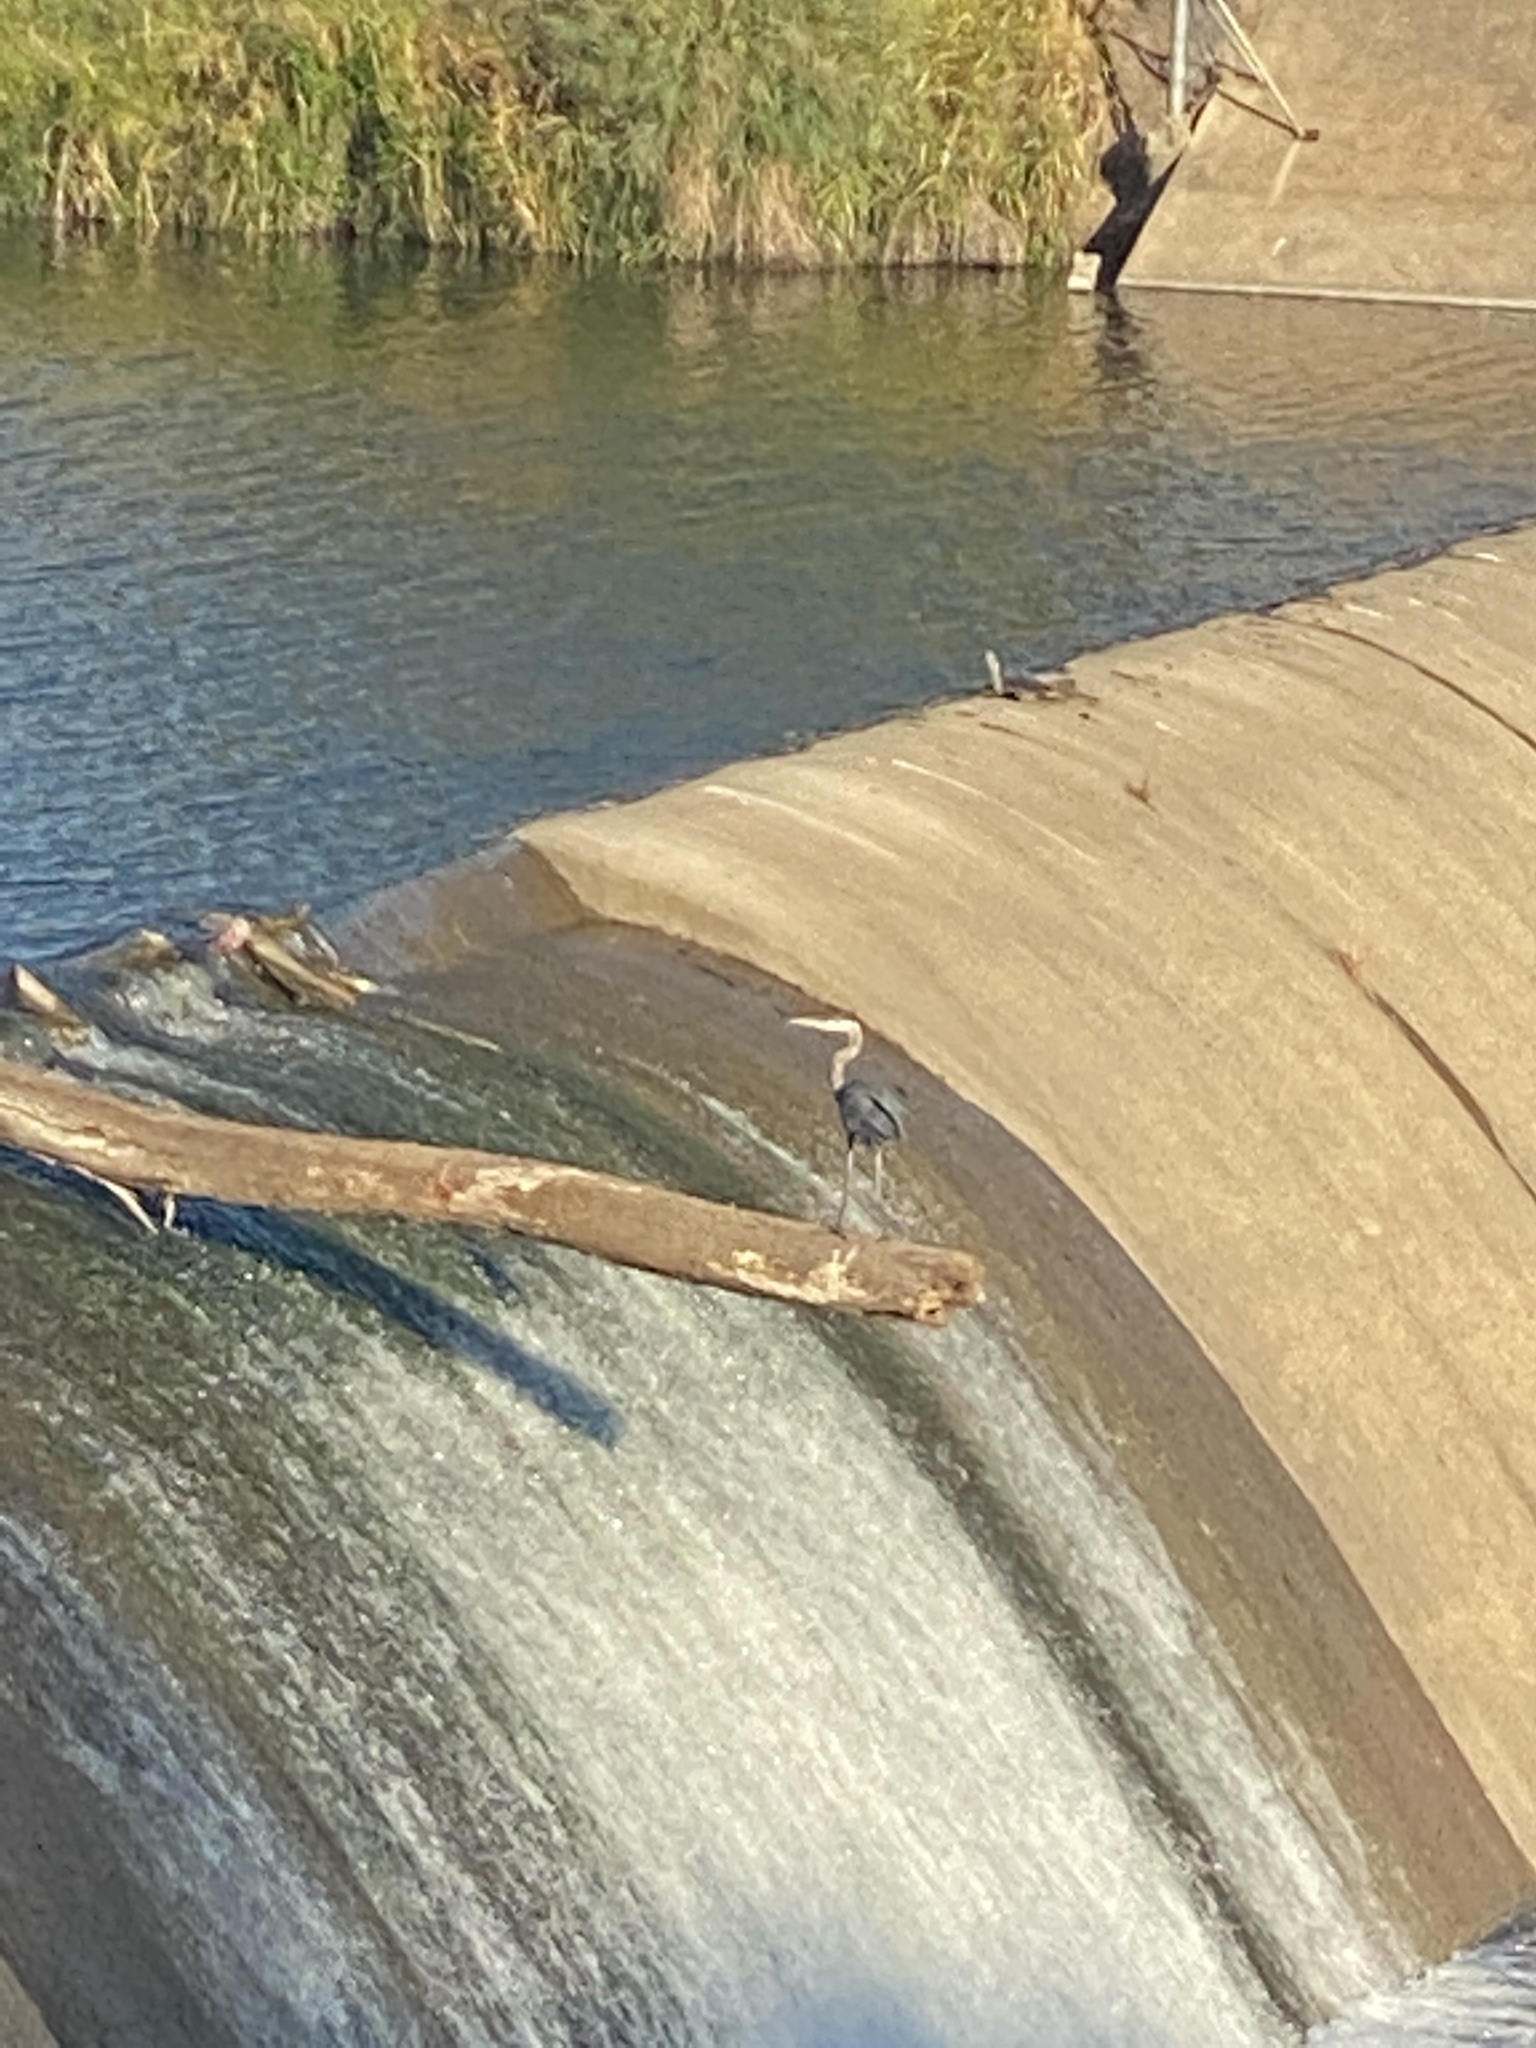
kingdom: Animalia
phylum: Chordata
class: Aves
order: Pelecaniformes
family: Ardeidae
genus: Ardea
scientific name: Ardea herodias
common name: Great blue heron
